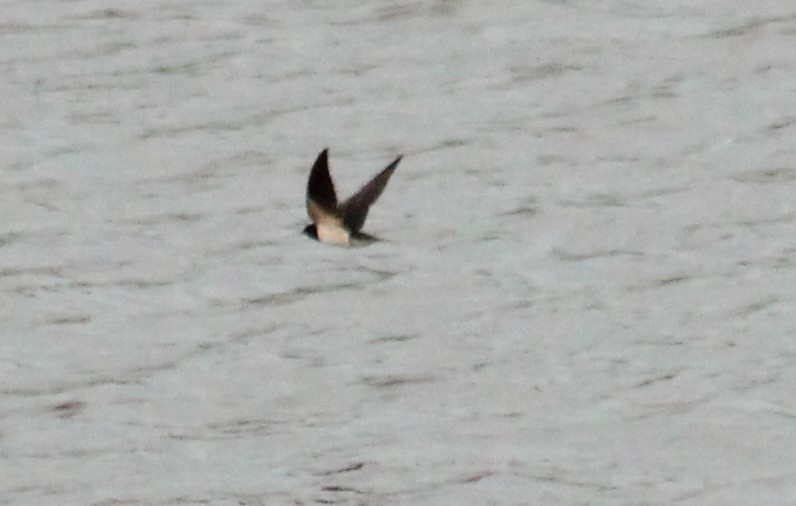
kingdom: Animalia
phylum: Chordata
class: Aves
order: Passeriformes
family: Hirundinidae
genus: Hirundo
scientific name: Hirundo rustica
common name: Barn swallow
